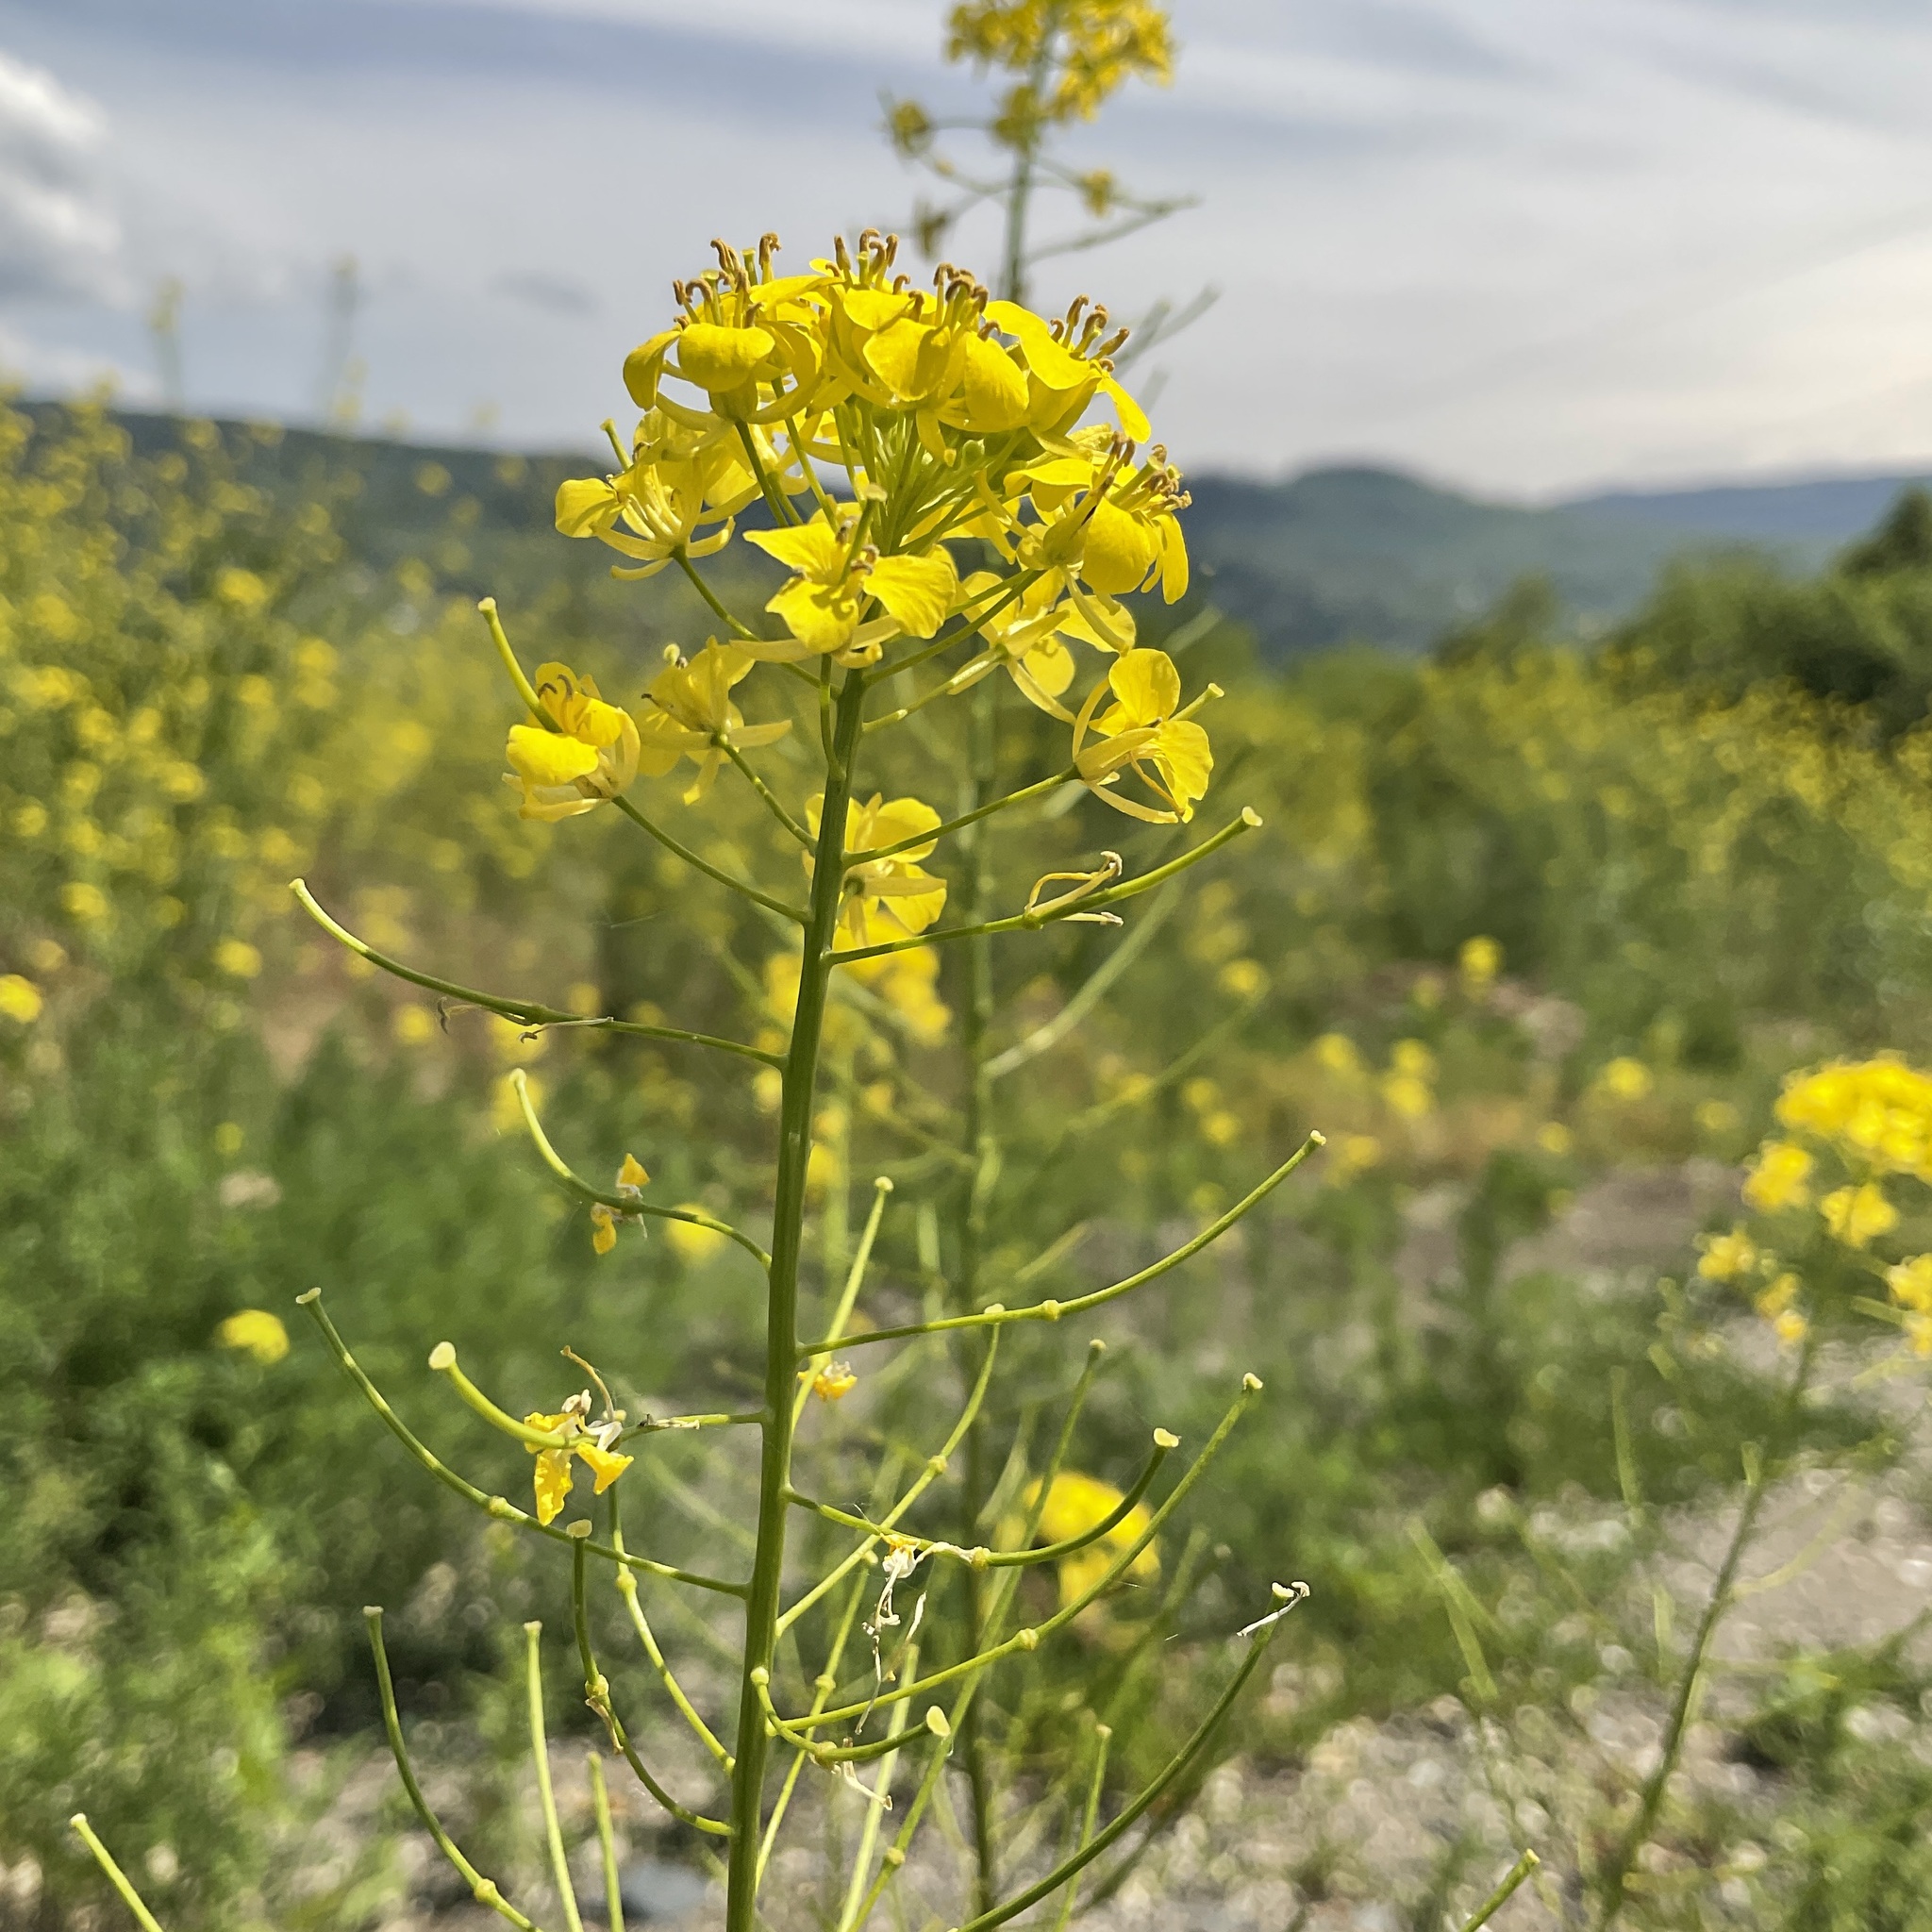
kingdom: Plantae
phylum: Tracheophyta
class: Magnoliopsida
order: Brassicales
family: Brassicaceae
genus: Sisymbrium
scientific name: Sisymbrium loeselii
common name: False london-rocket
